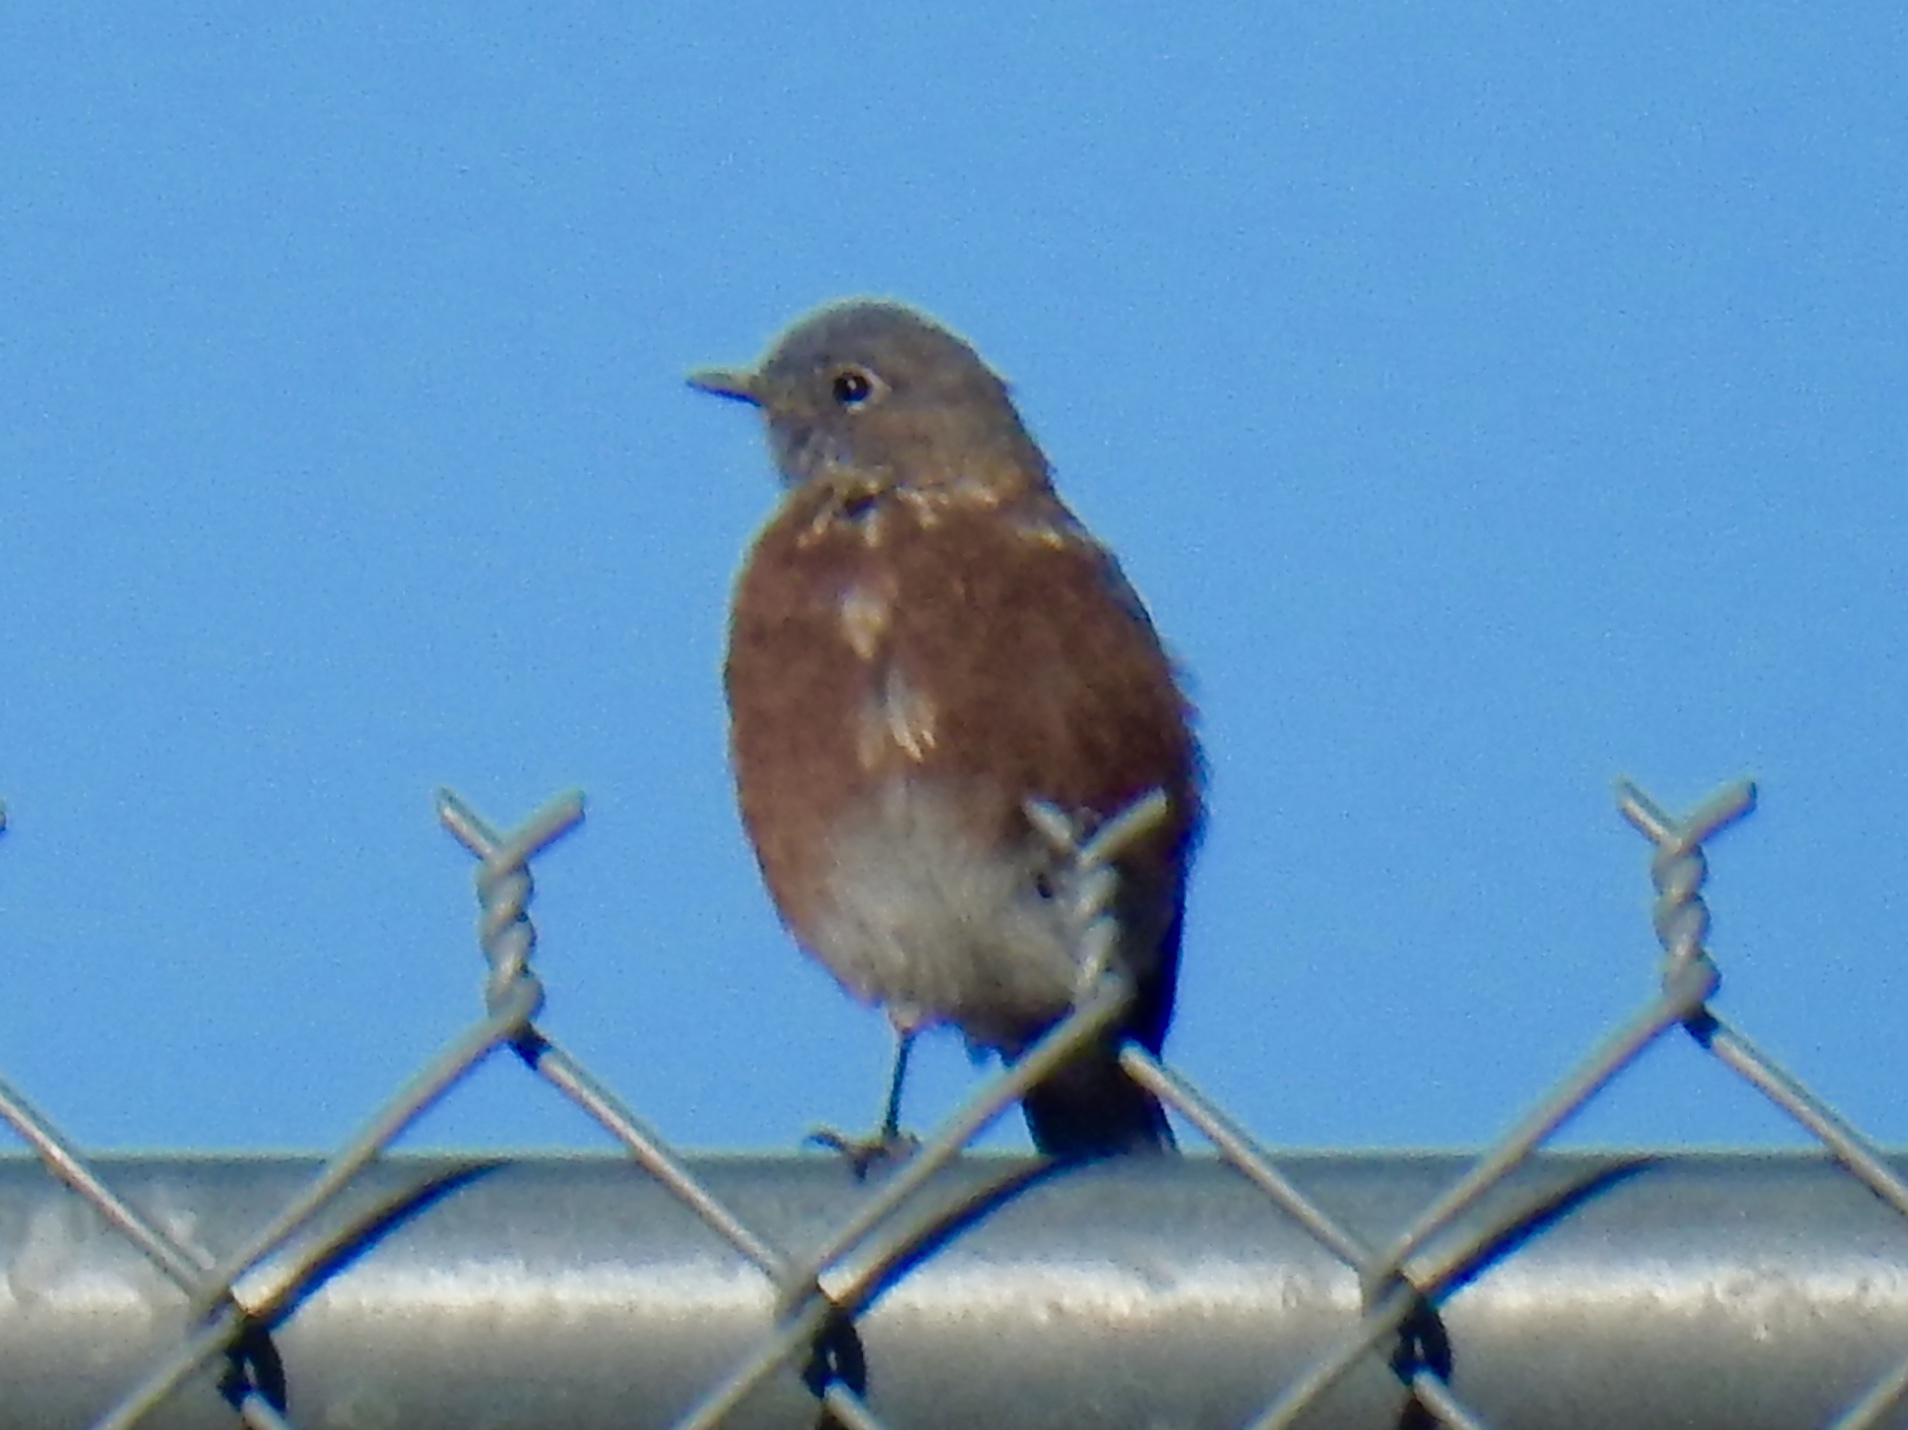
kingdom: Animalia
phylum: Chordata
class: Aves
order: Passeriformes
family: Turdidae
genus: Sialia
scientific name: Sialia mexicana
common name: Western bluebird
